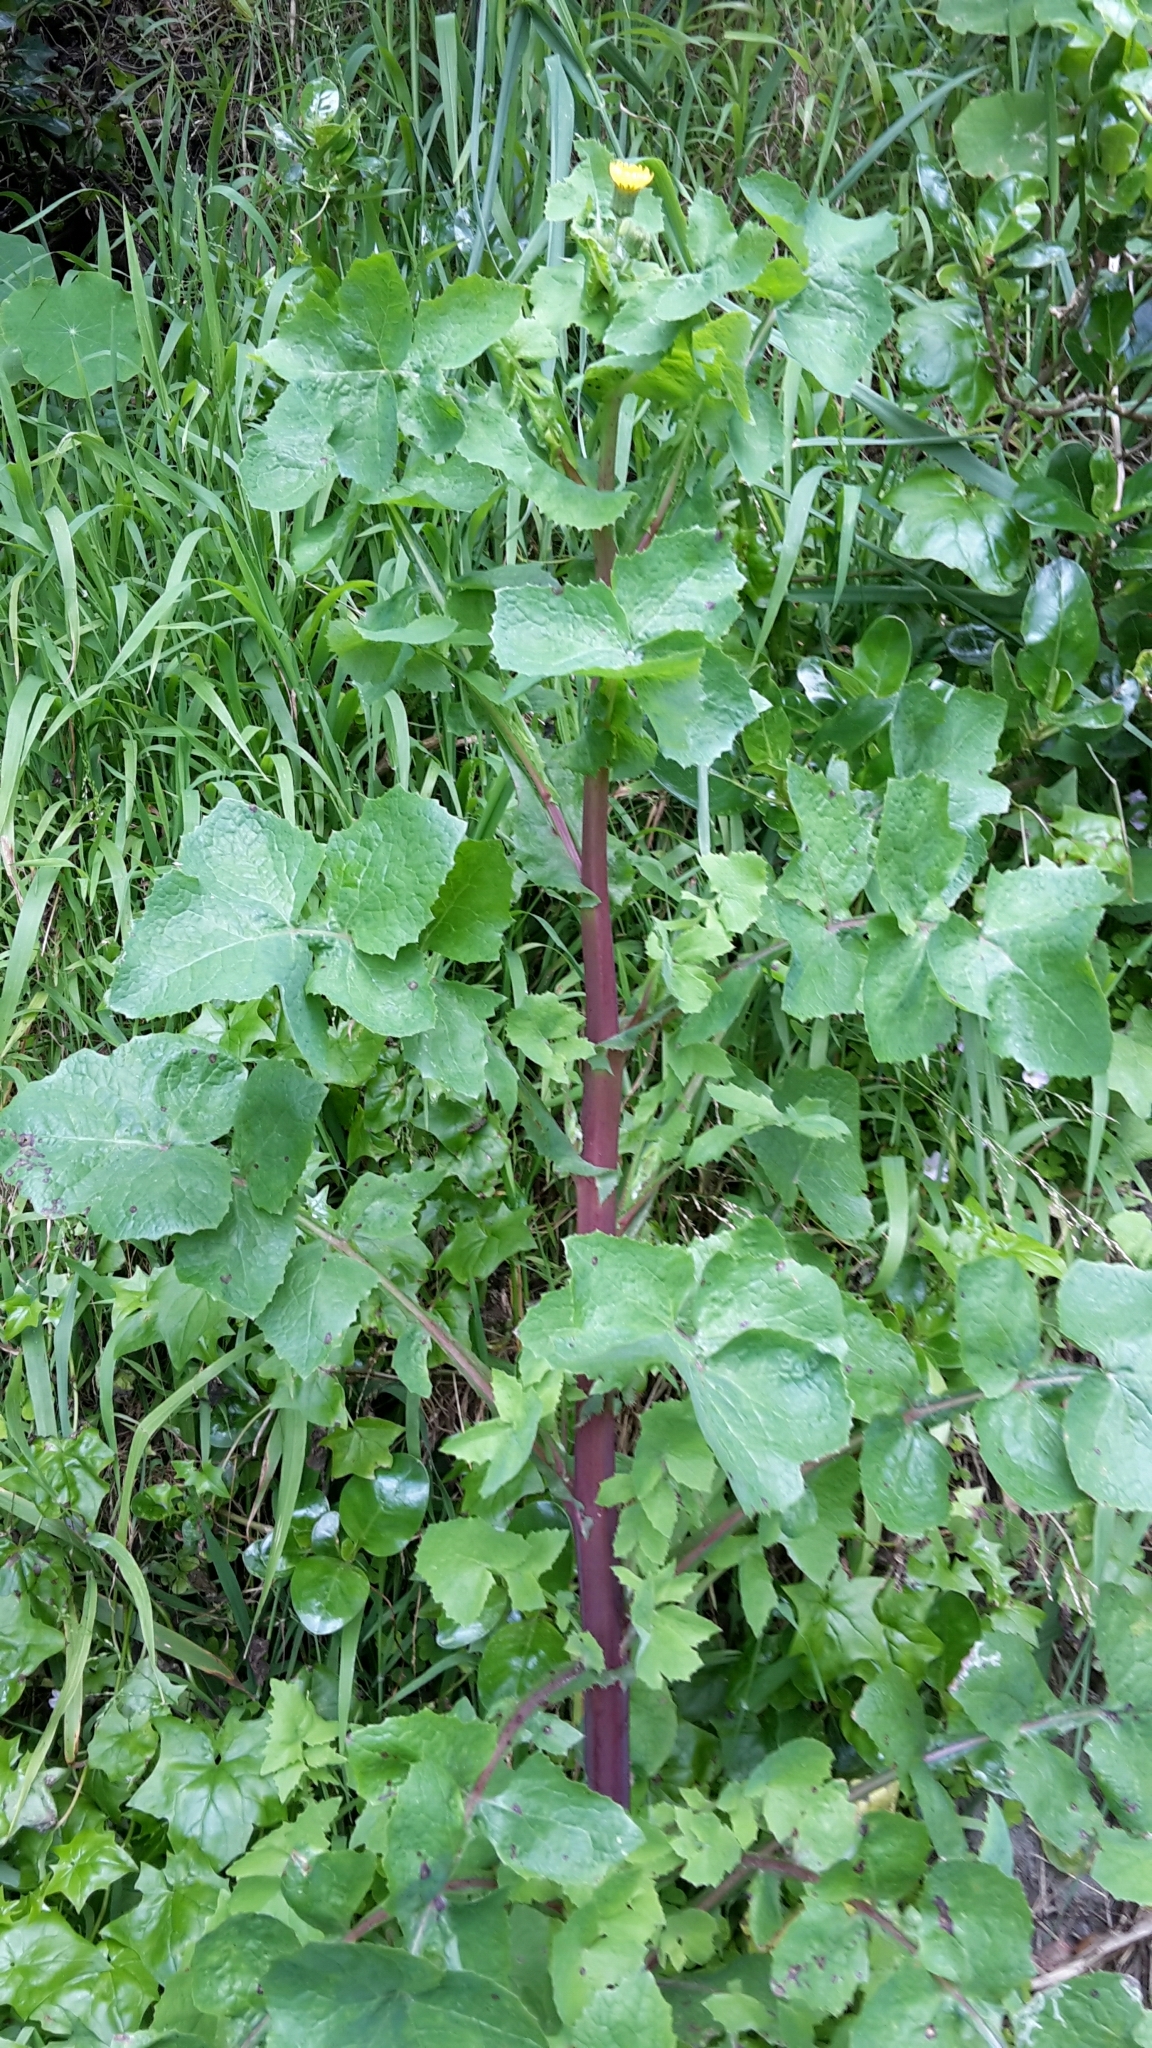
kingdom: Plantae
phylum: Tracheophyta
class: Magnoliopsida
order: Asterales
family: Asteraceae
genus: Sonchus
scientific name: Sonchus oleraceus
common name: Common sowthistle
